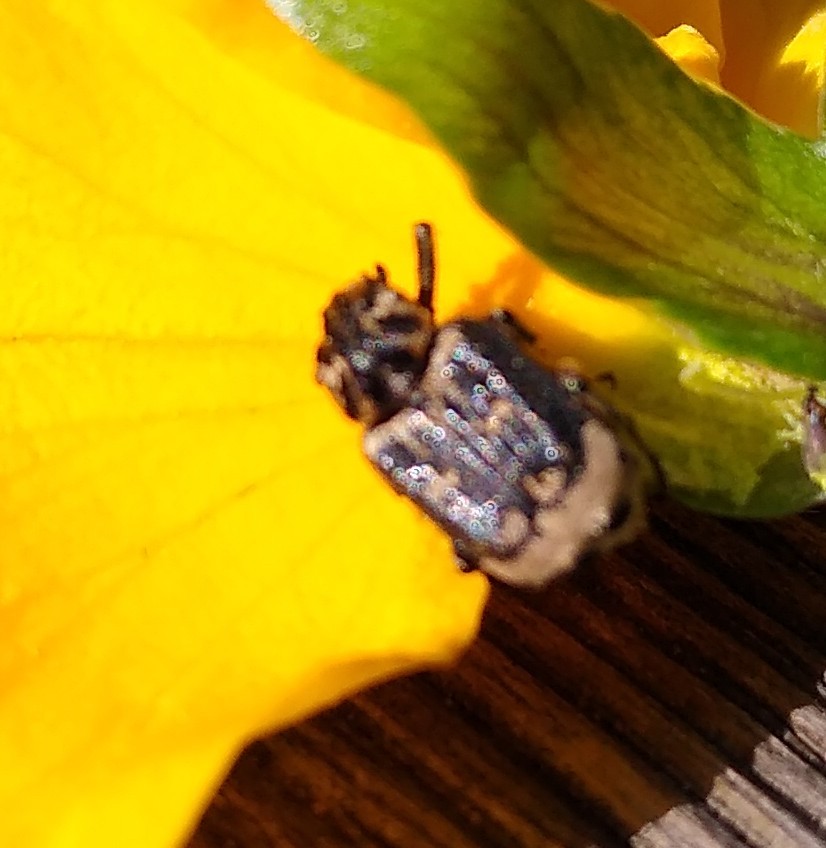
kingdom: Animalia
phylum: Arthropoda
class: Insecta
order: Coleoptera
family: Scarabaeidae
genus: Valgus
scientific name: Valgus hemipterus
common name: Bug flower chafer
